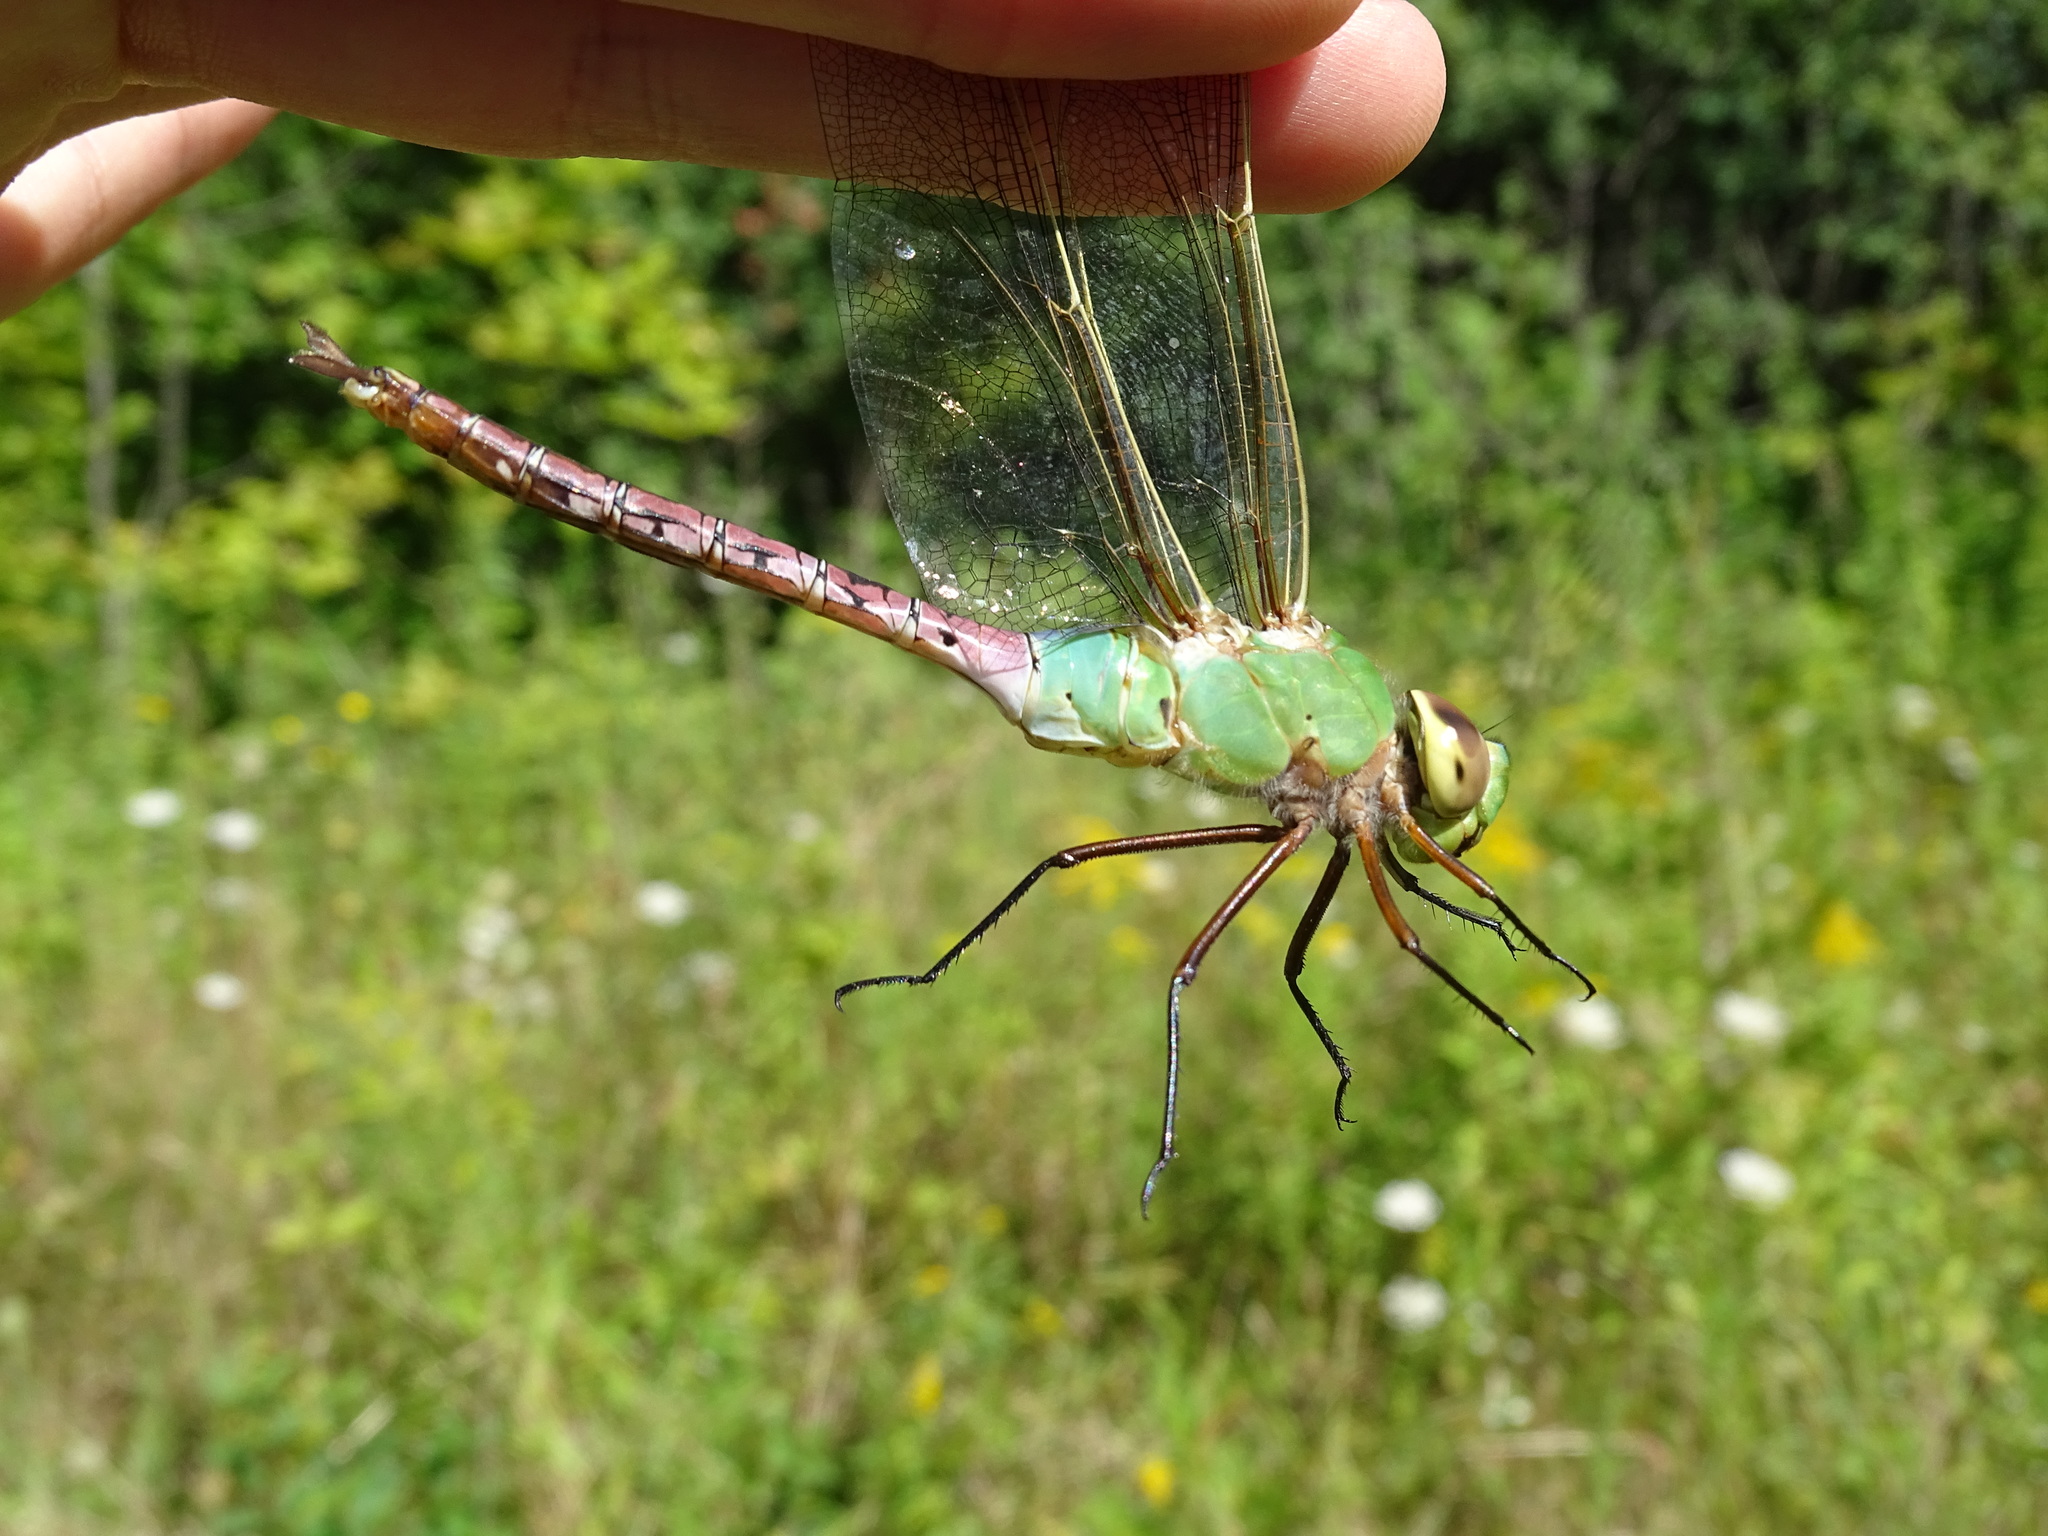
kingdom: Animalia
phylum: Arthropoda
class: Insecta
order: Odonata
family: Aeshnidae
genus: Anax
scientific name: Anax junius
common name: Common green darner
